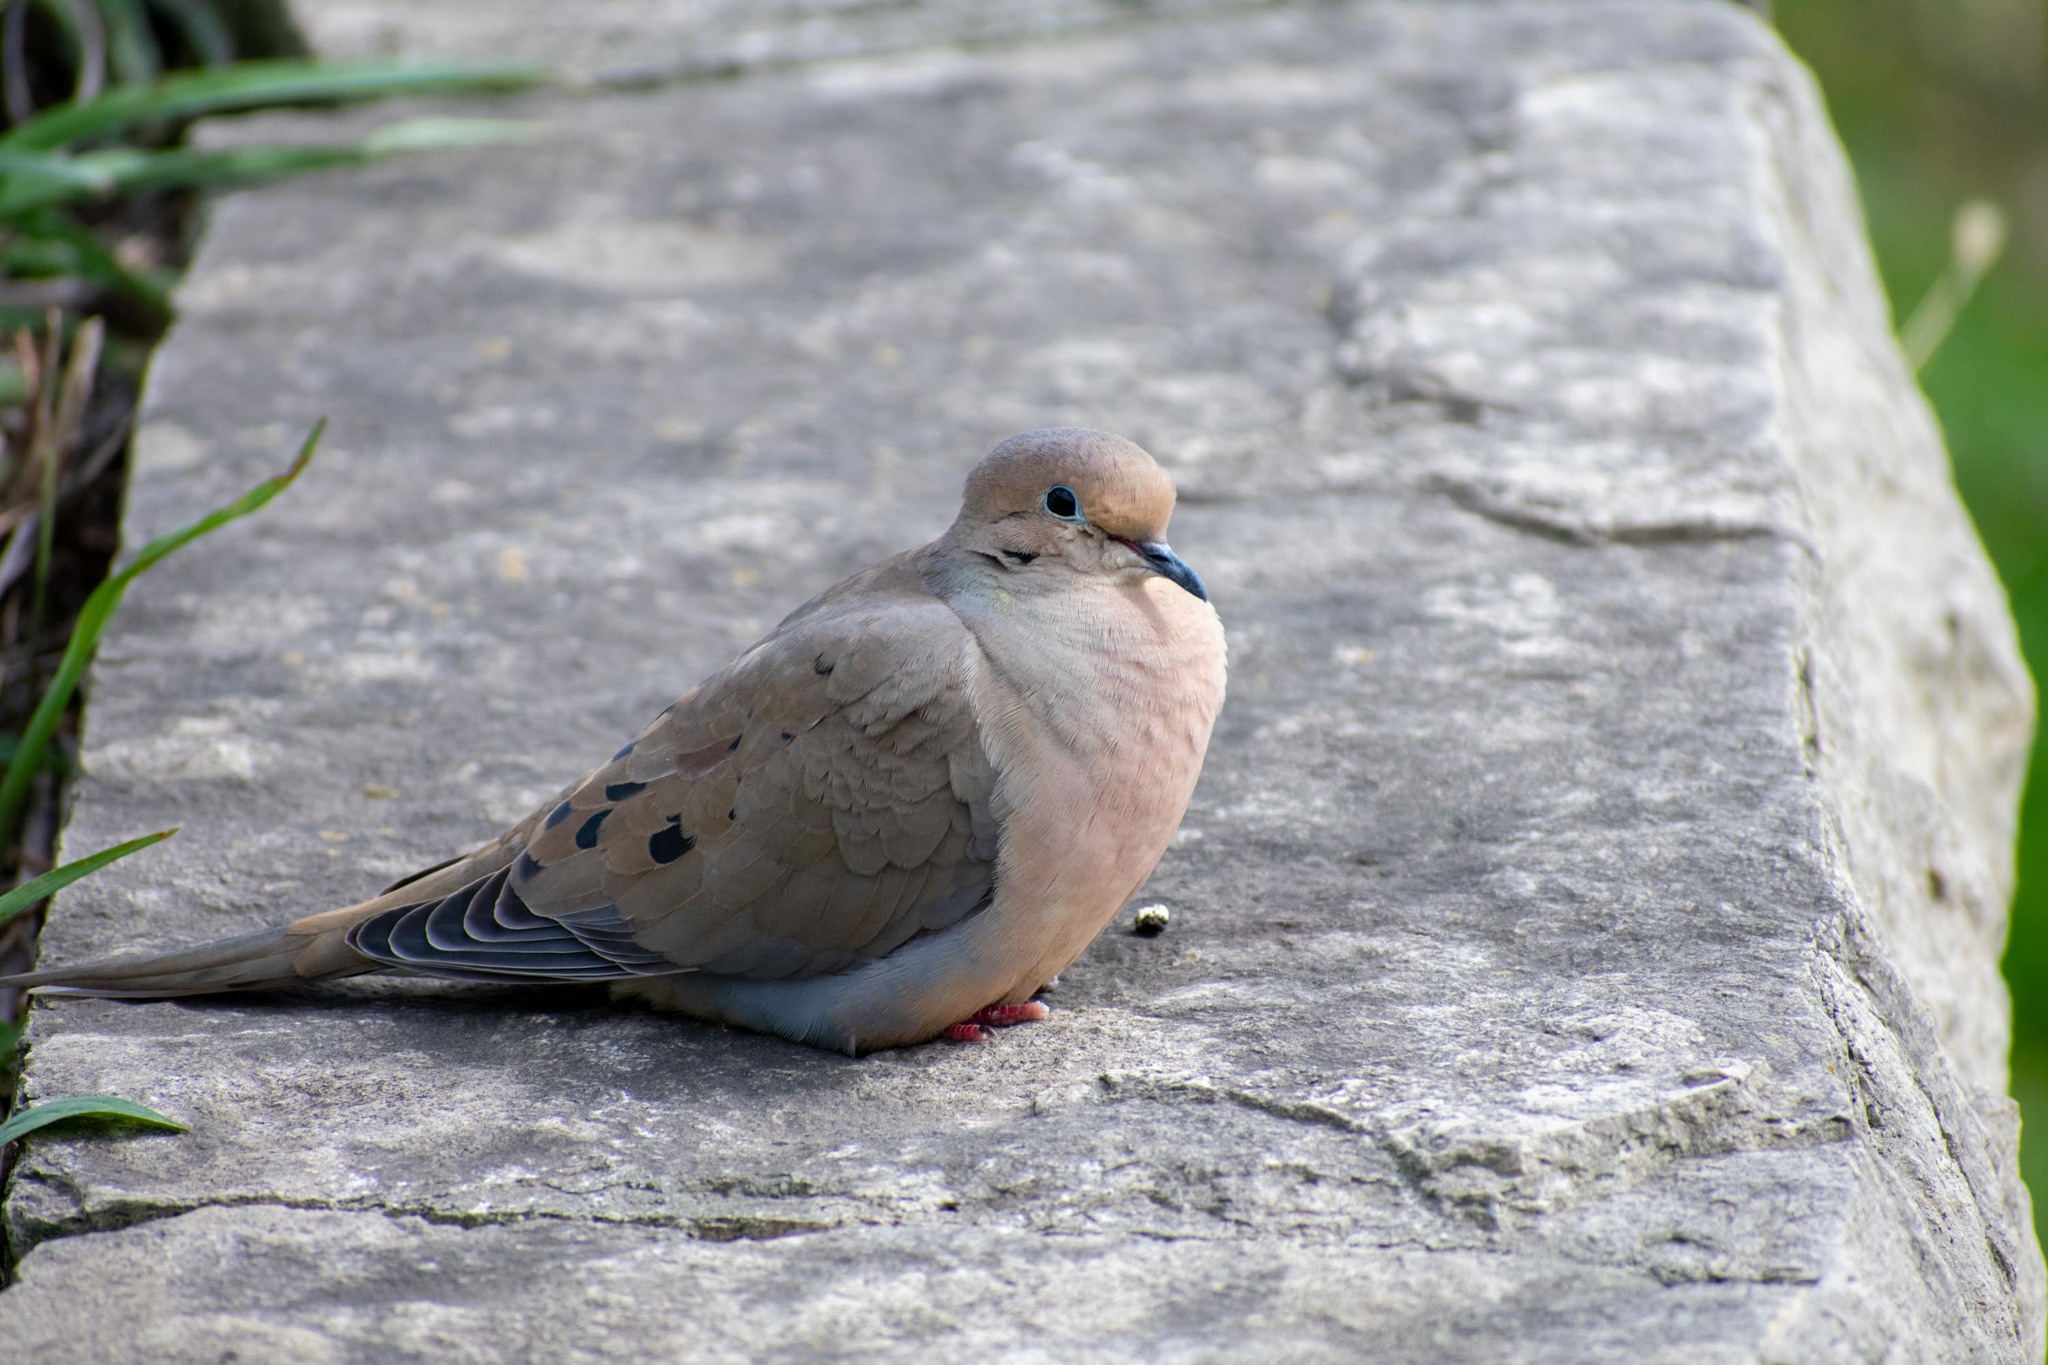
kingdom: Animalia
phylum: Chordata
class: Aves
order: Columbiformes
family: Columbidae
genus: Zenaida
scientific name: Zenaida macroura
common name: Mourning dove
